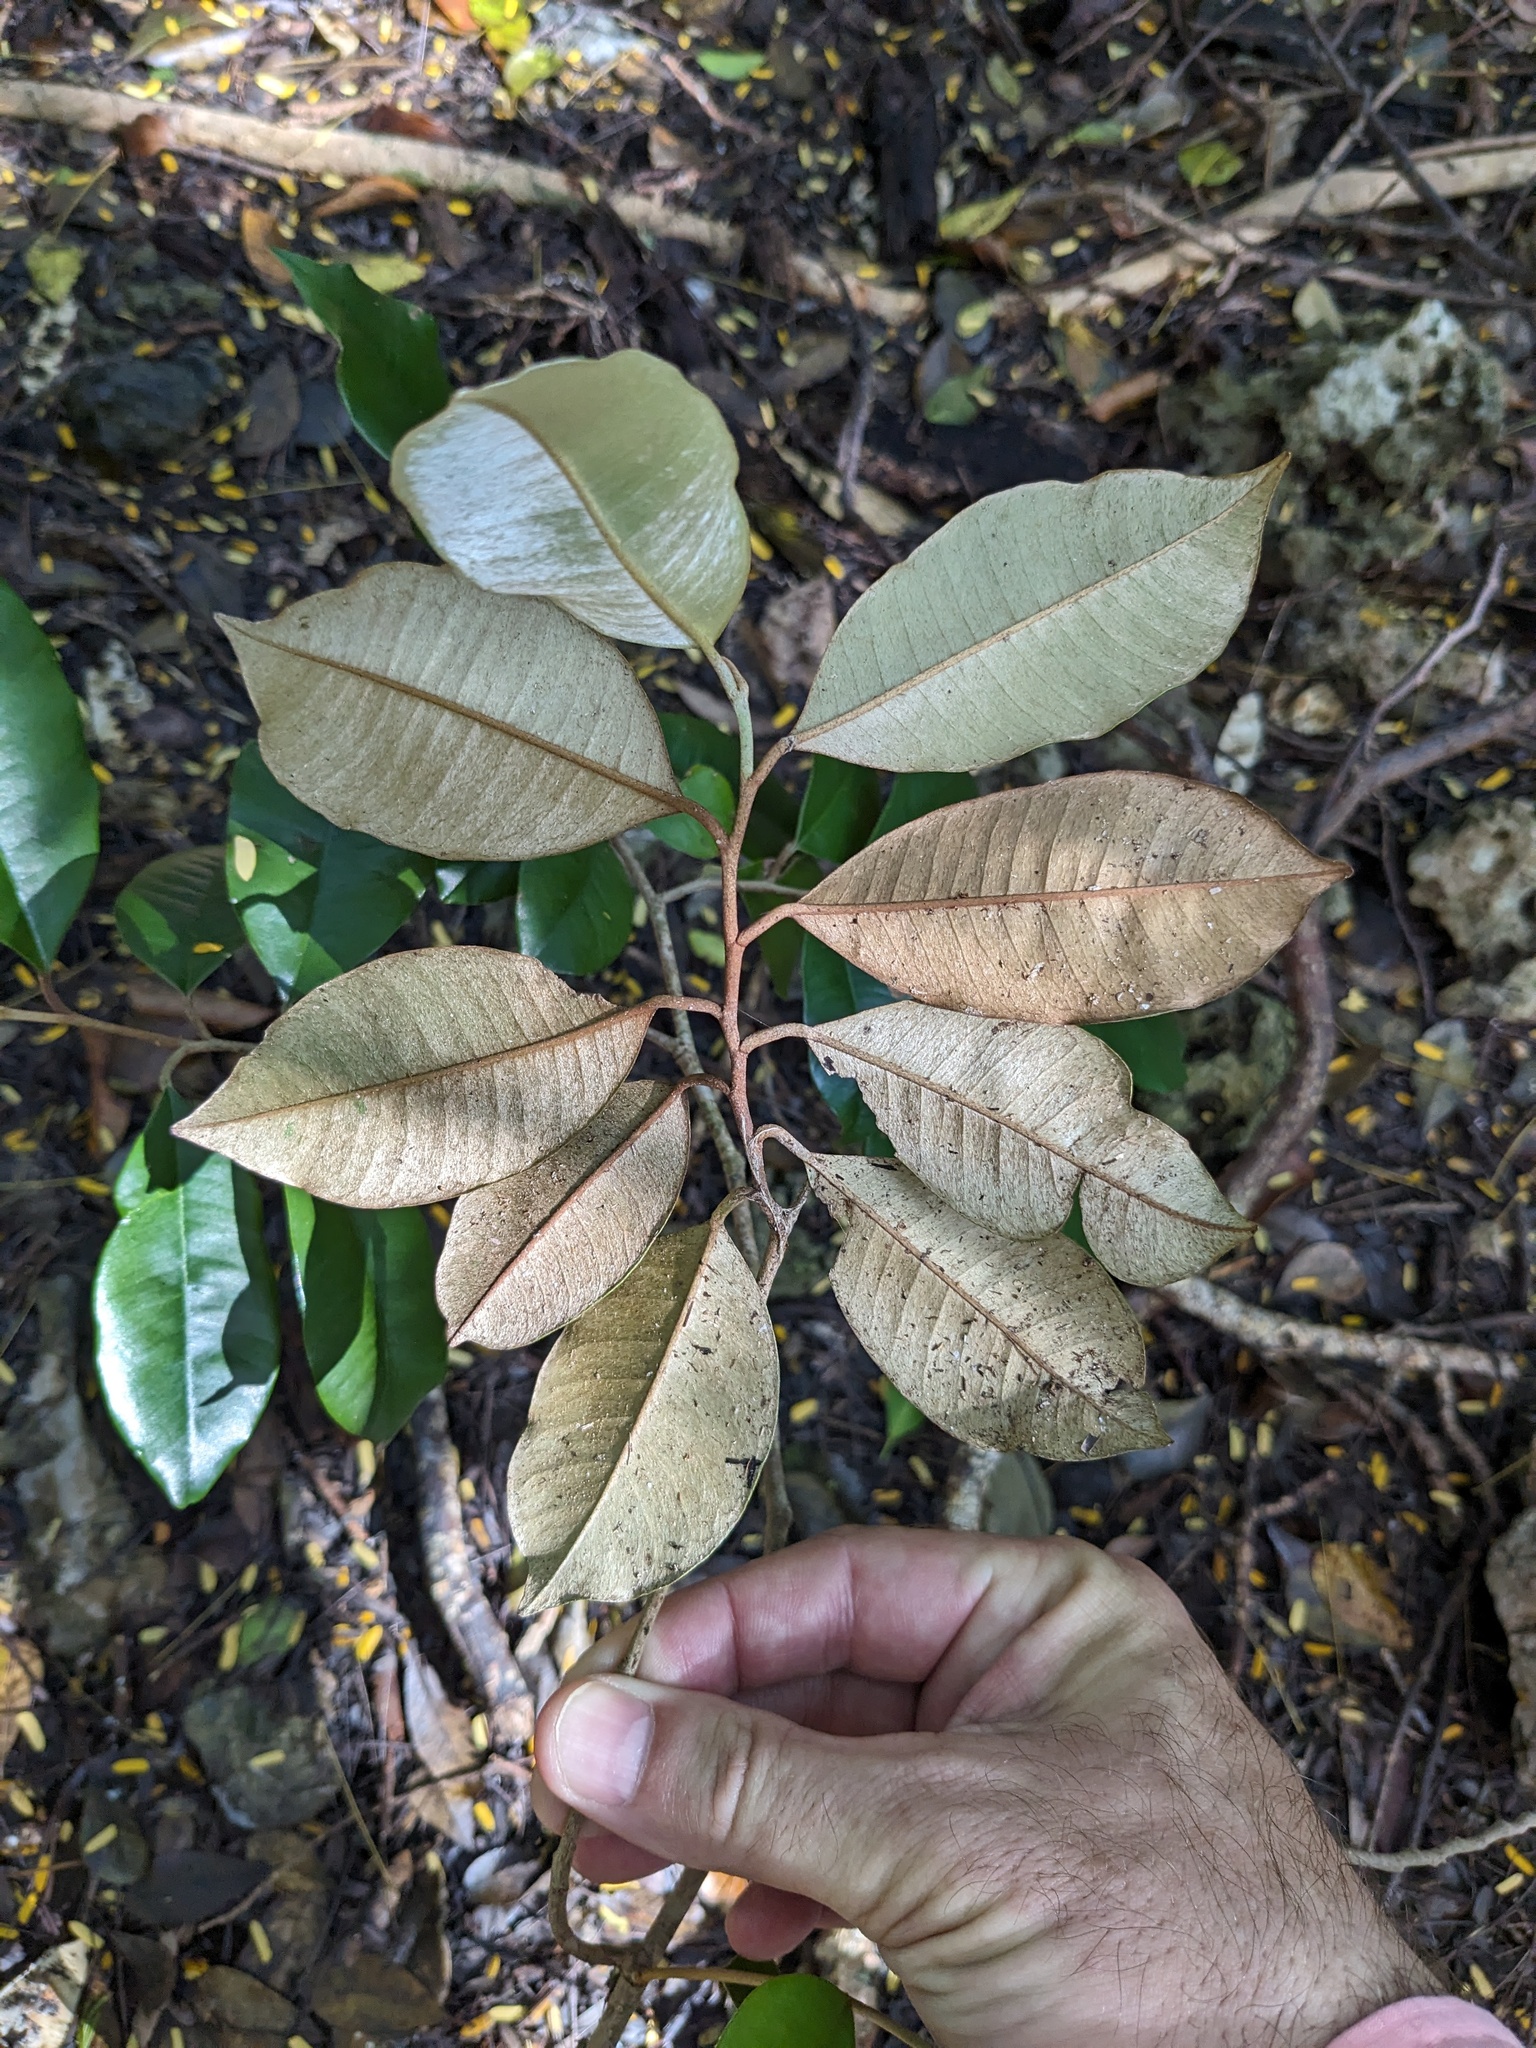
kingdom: Plantae
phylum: Tracheophyta
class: Magnoliopsida
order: Ericales
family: Sapotaceae
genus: Chrysophyllum
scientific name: Chrysophyllum oliviforme
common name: Satinleaf
